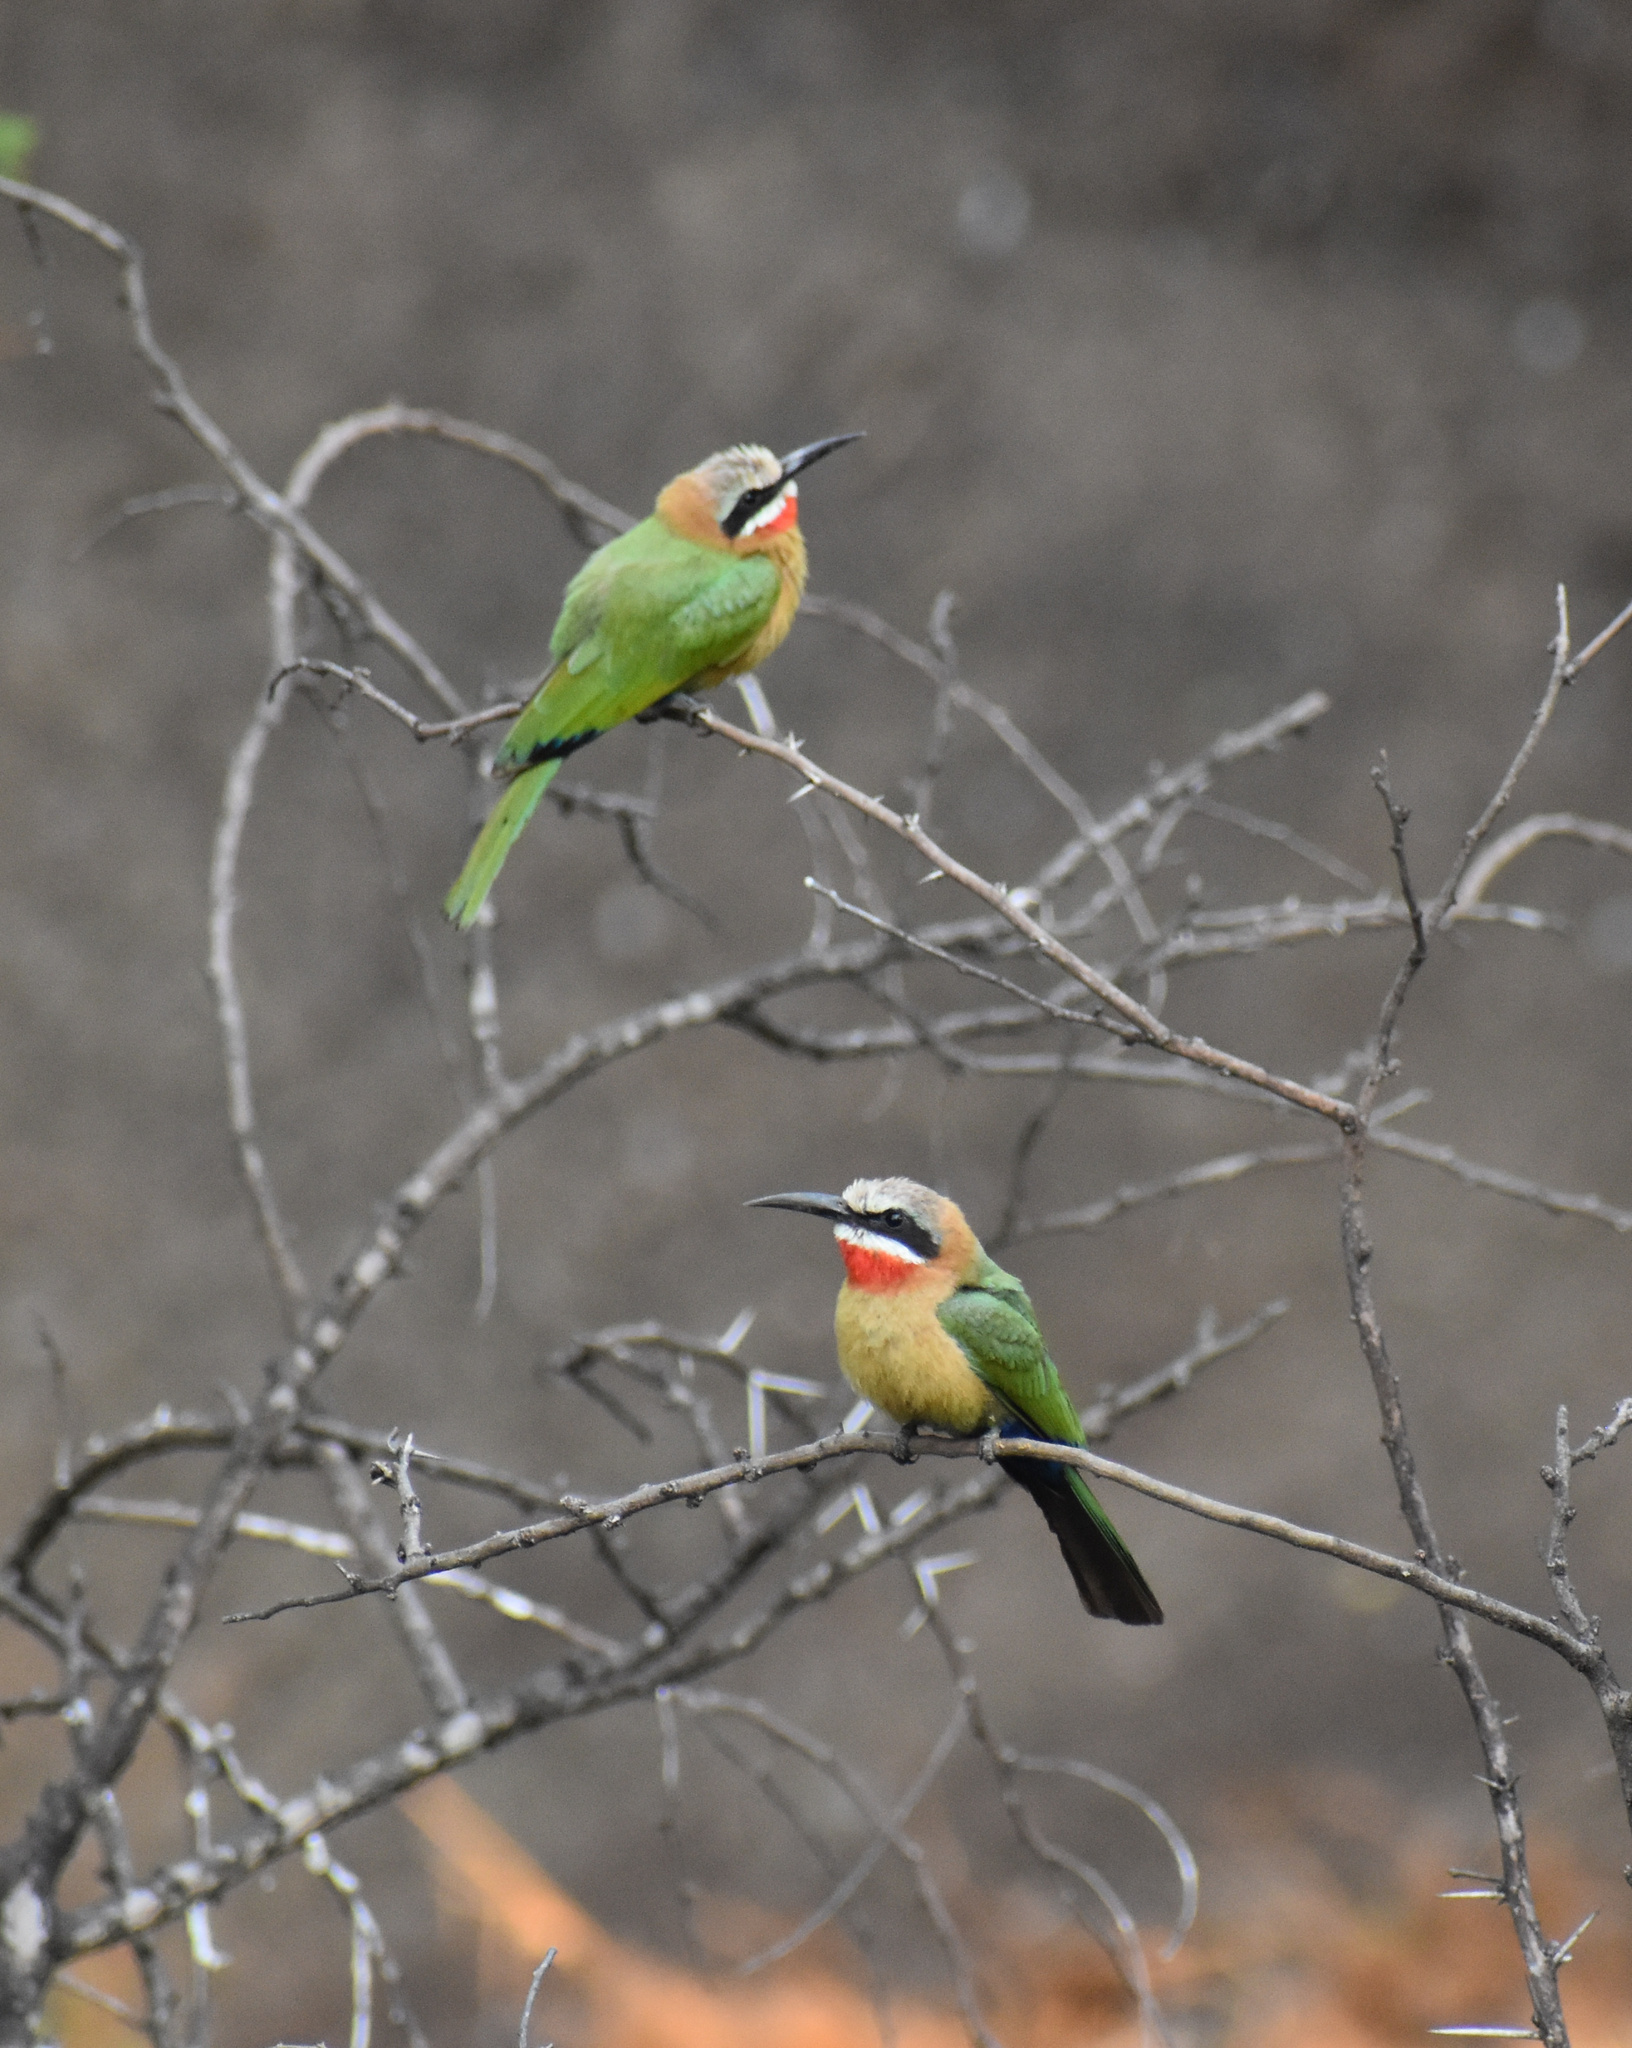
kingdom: Animalia
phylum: Chordata
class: Aves
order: Coraciiformes
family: Meropidae
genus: Merops
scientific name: Merops bullockoides
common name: White-fronted bee-eater
